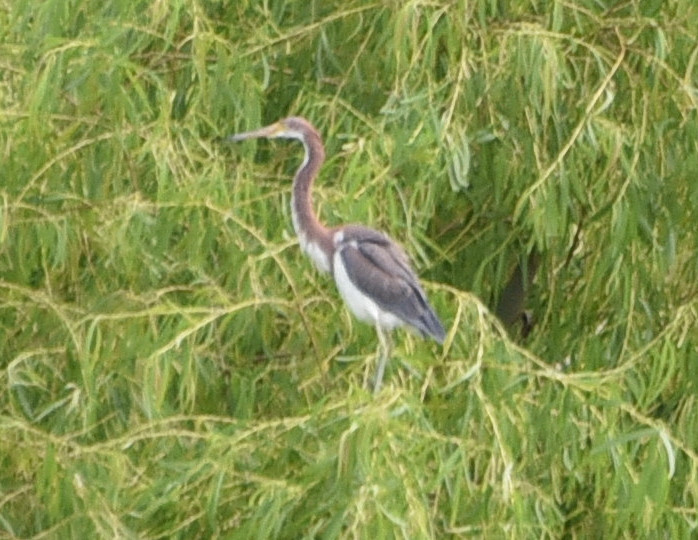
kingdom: Animalia
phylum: Chordata
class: Aves
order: Pelecaniformes
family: Ardeidae
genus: Egretta
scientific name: Egretta tricolor
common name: Tricolored heron
